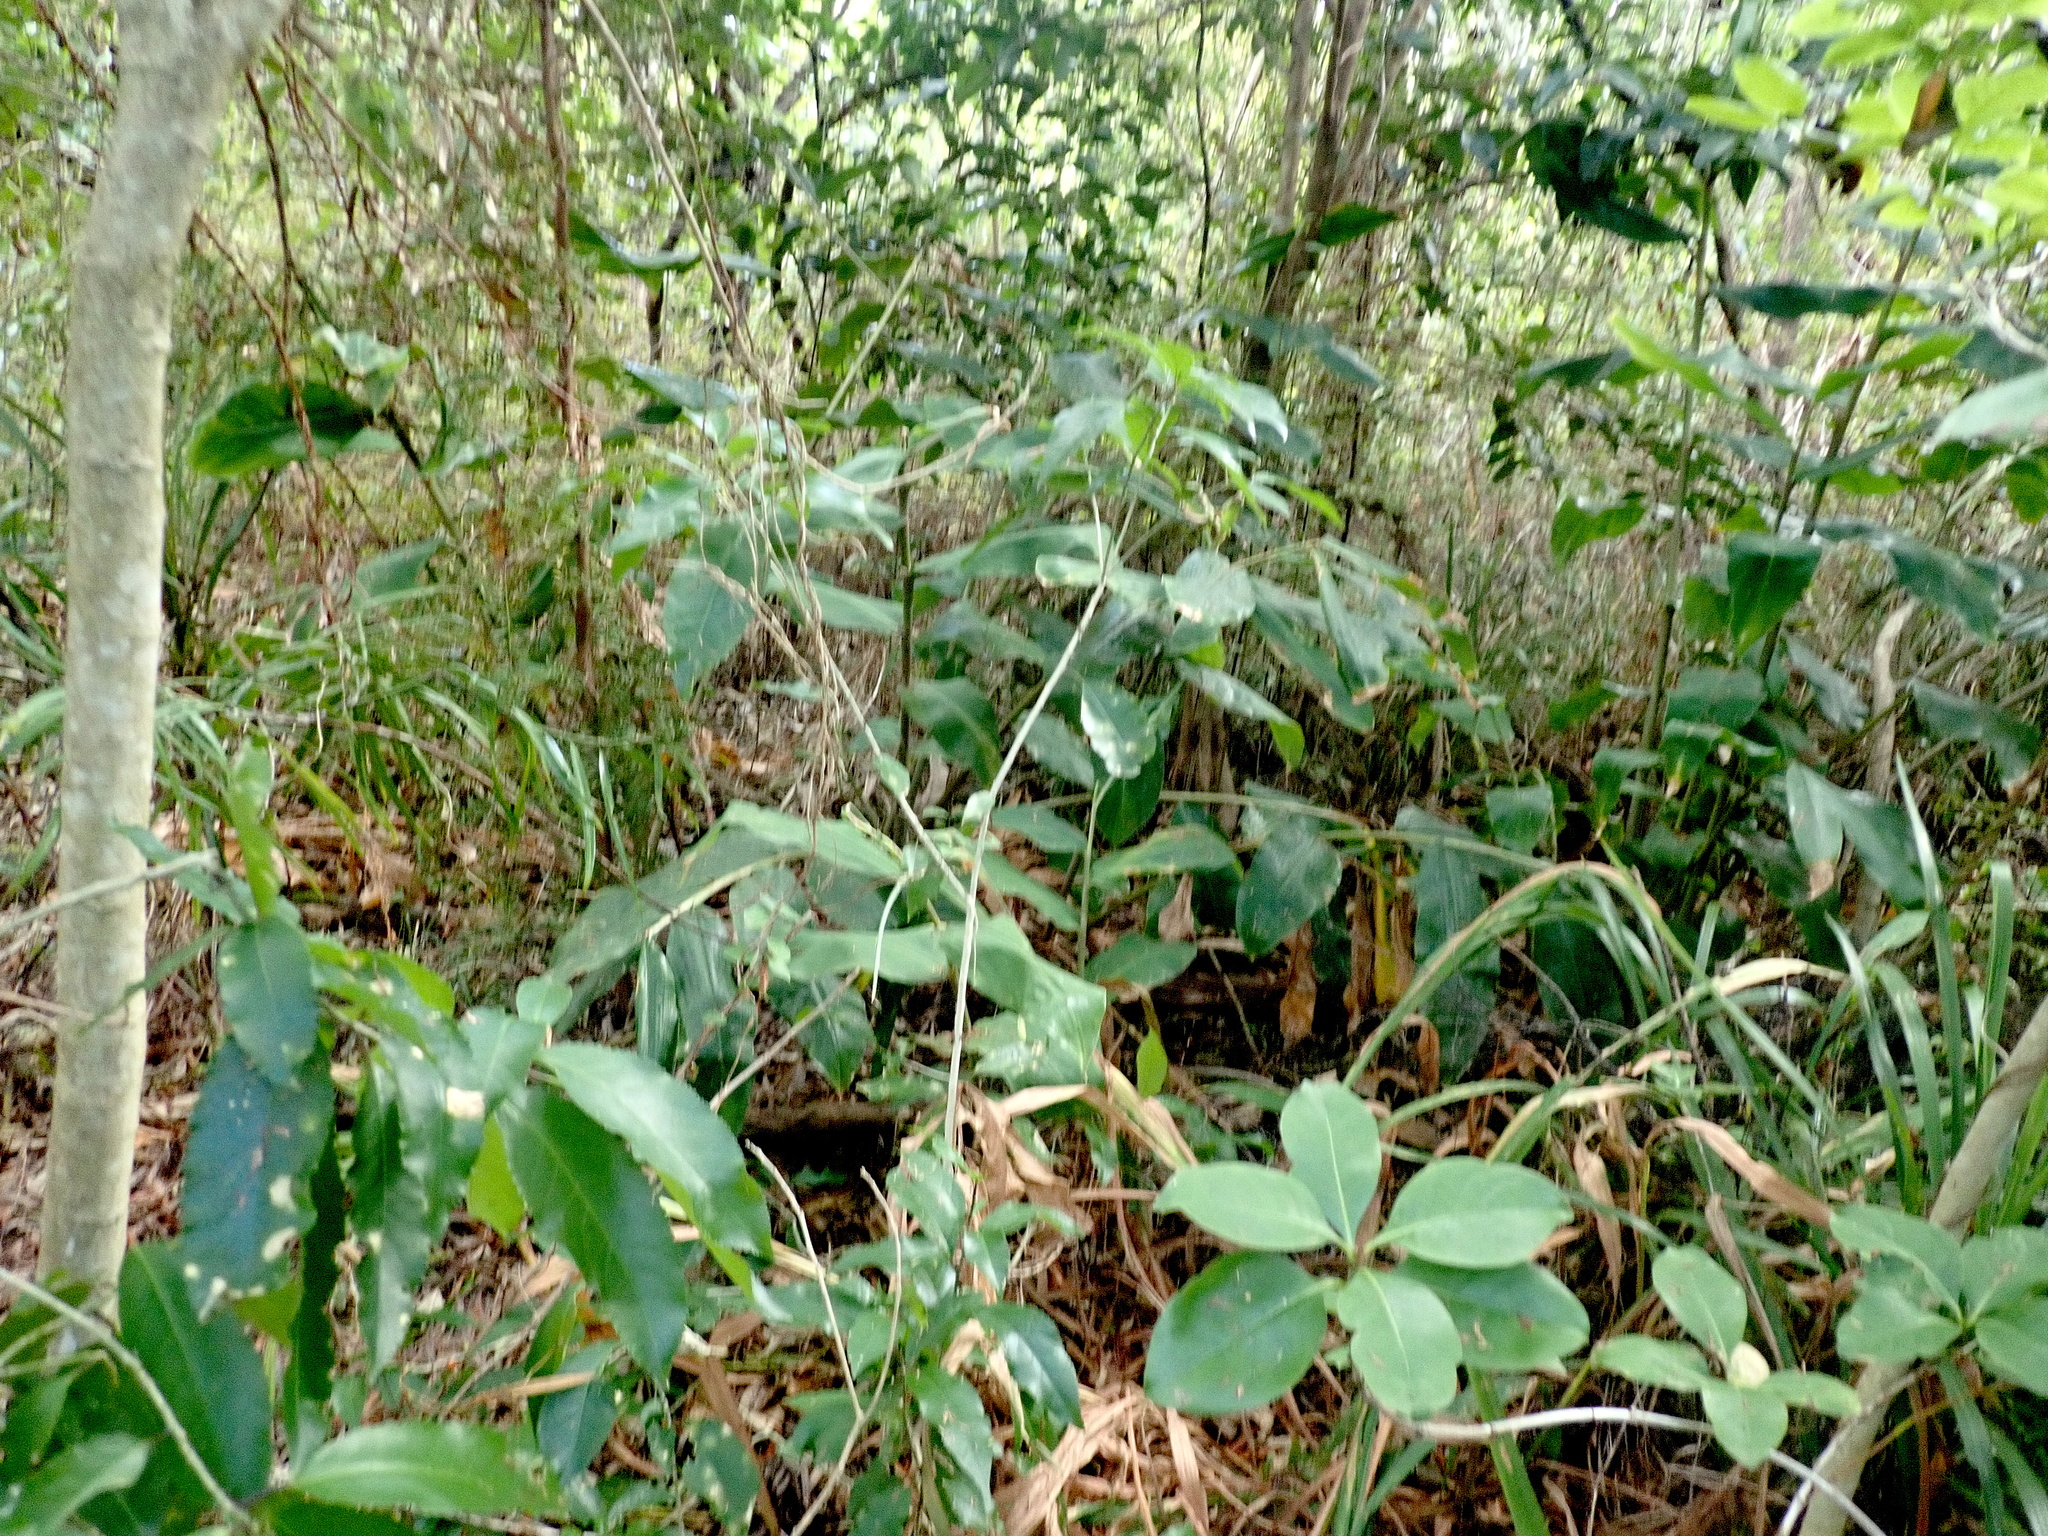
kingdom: Plantae
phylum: Tracheophyta
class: Liliopsida
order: Zingiberales
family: Zingiberaceae
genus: Hedychium
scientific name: Hedychium gardnerianum
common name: Himalayan ginger
